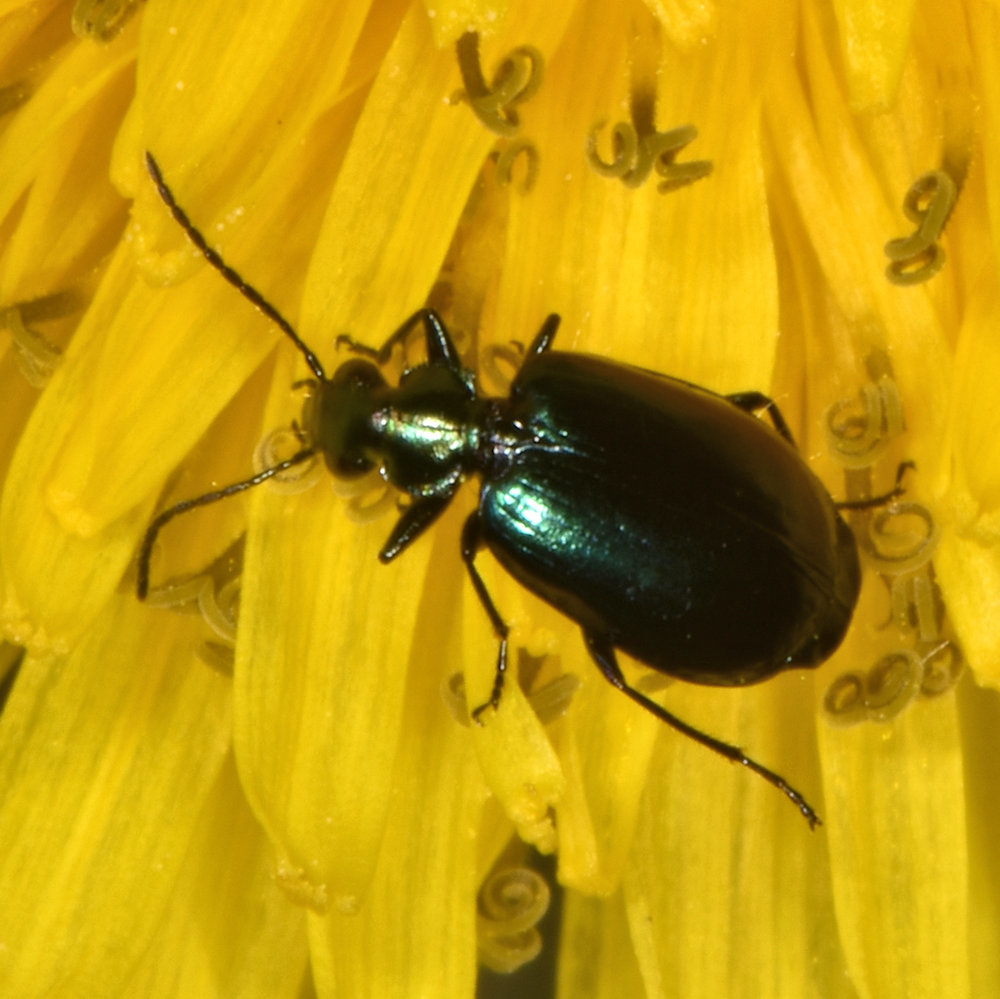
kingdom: Animalia
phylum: Arthropoda
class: Insecta
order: Coleoptera
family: Carabidae
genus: Lebia
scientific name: Lebia viridis
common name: Flower lebia beetle
